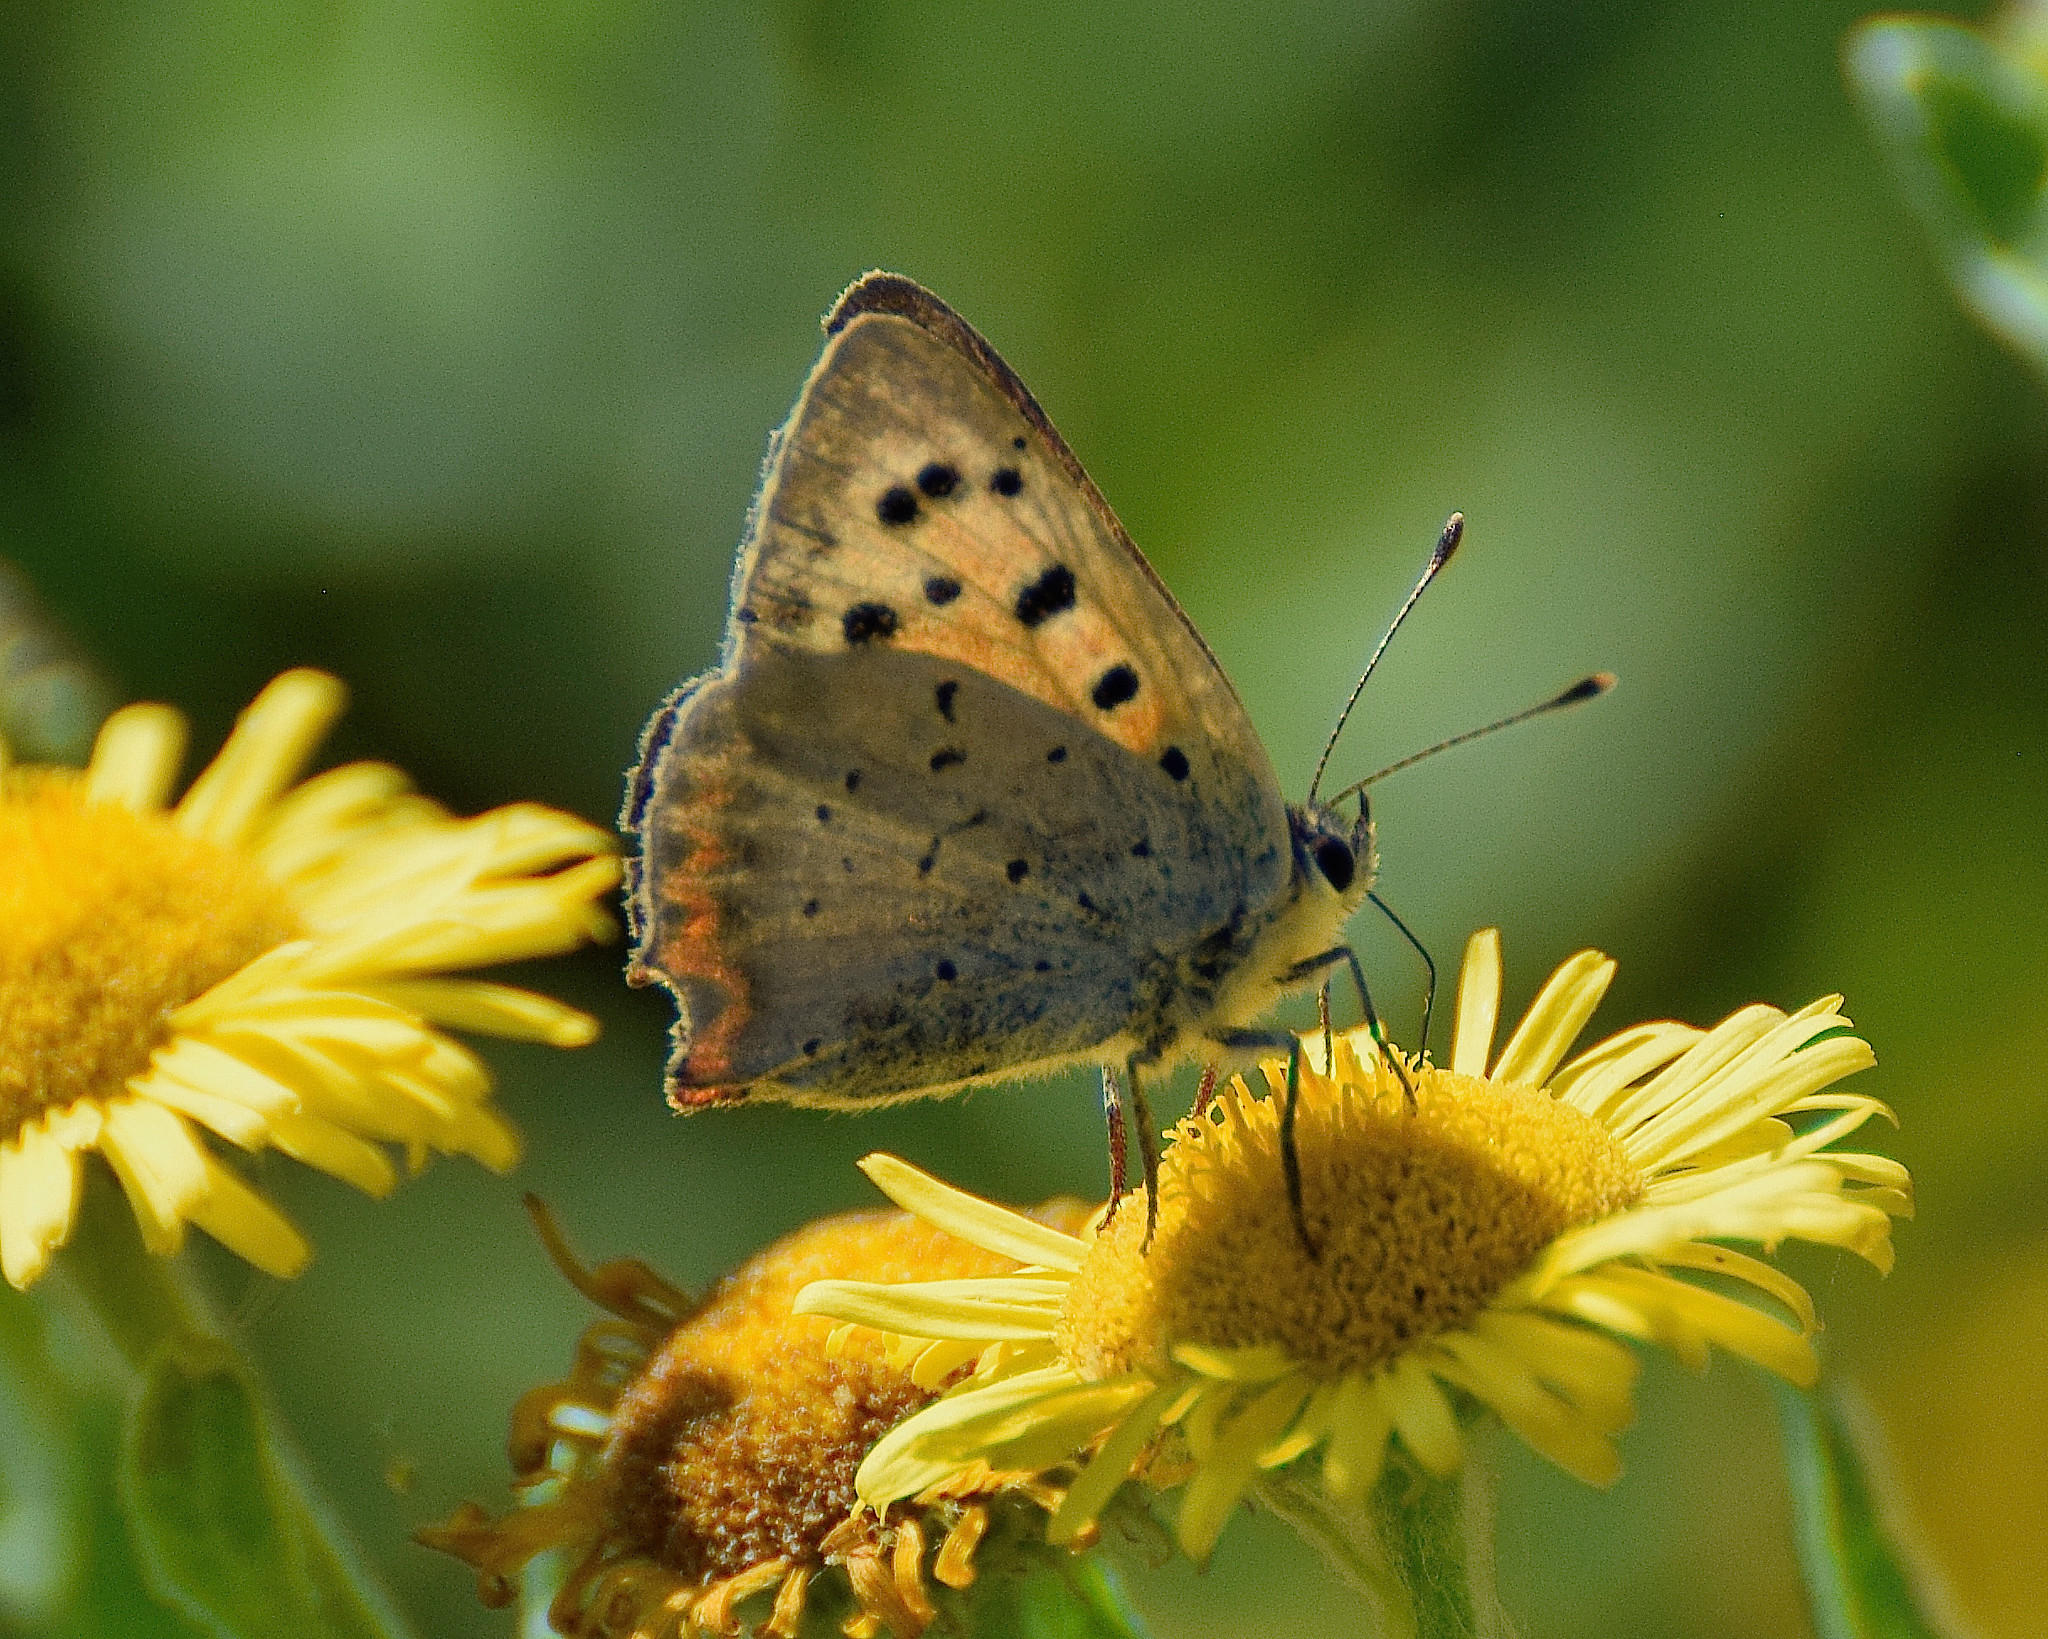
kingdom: Animalia
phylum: Arthropoda
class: Insecta
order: Lepidoptera
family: Lycaenidae
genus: Lycaena
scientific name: Lycaena phlaeas
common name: Small copper
